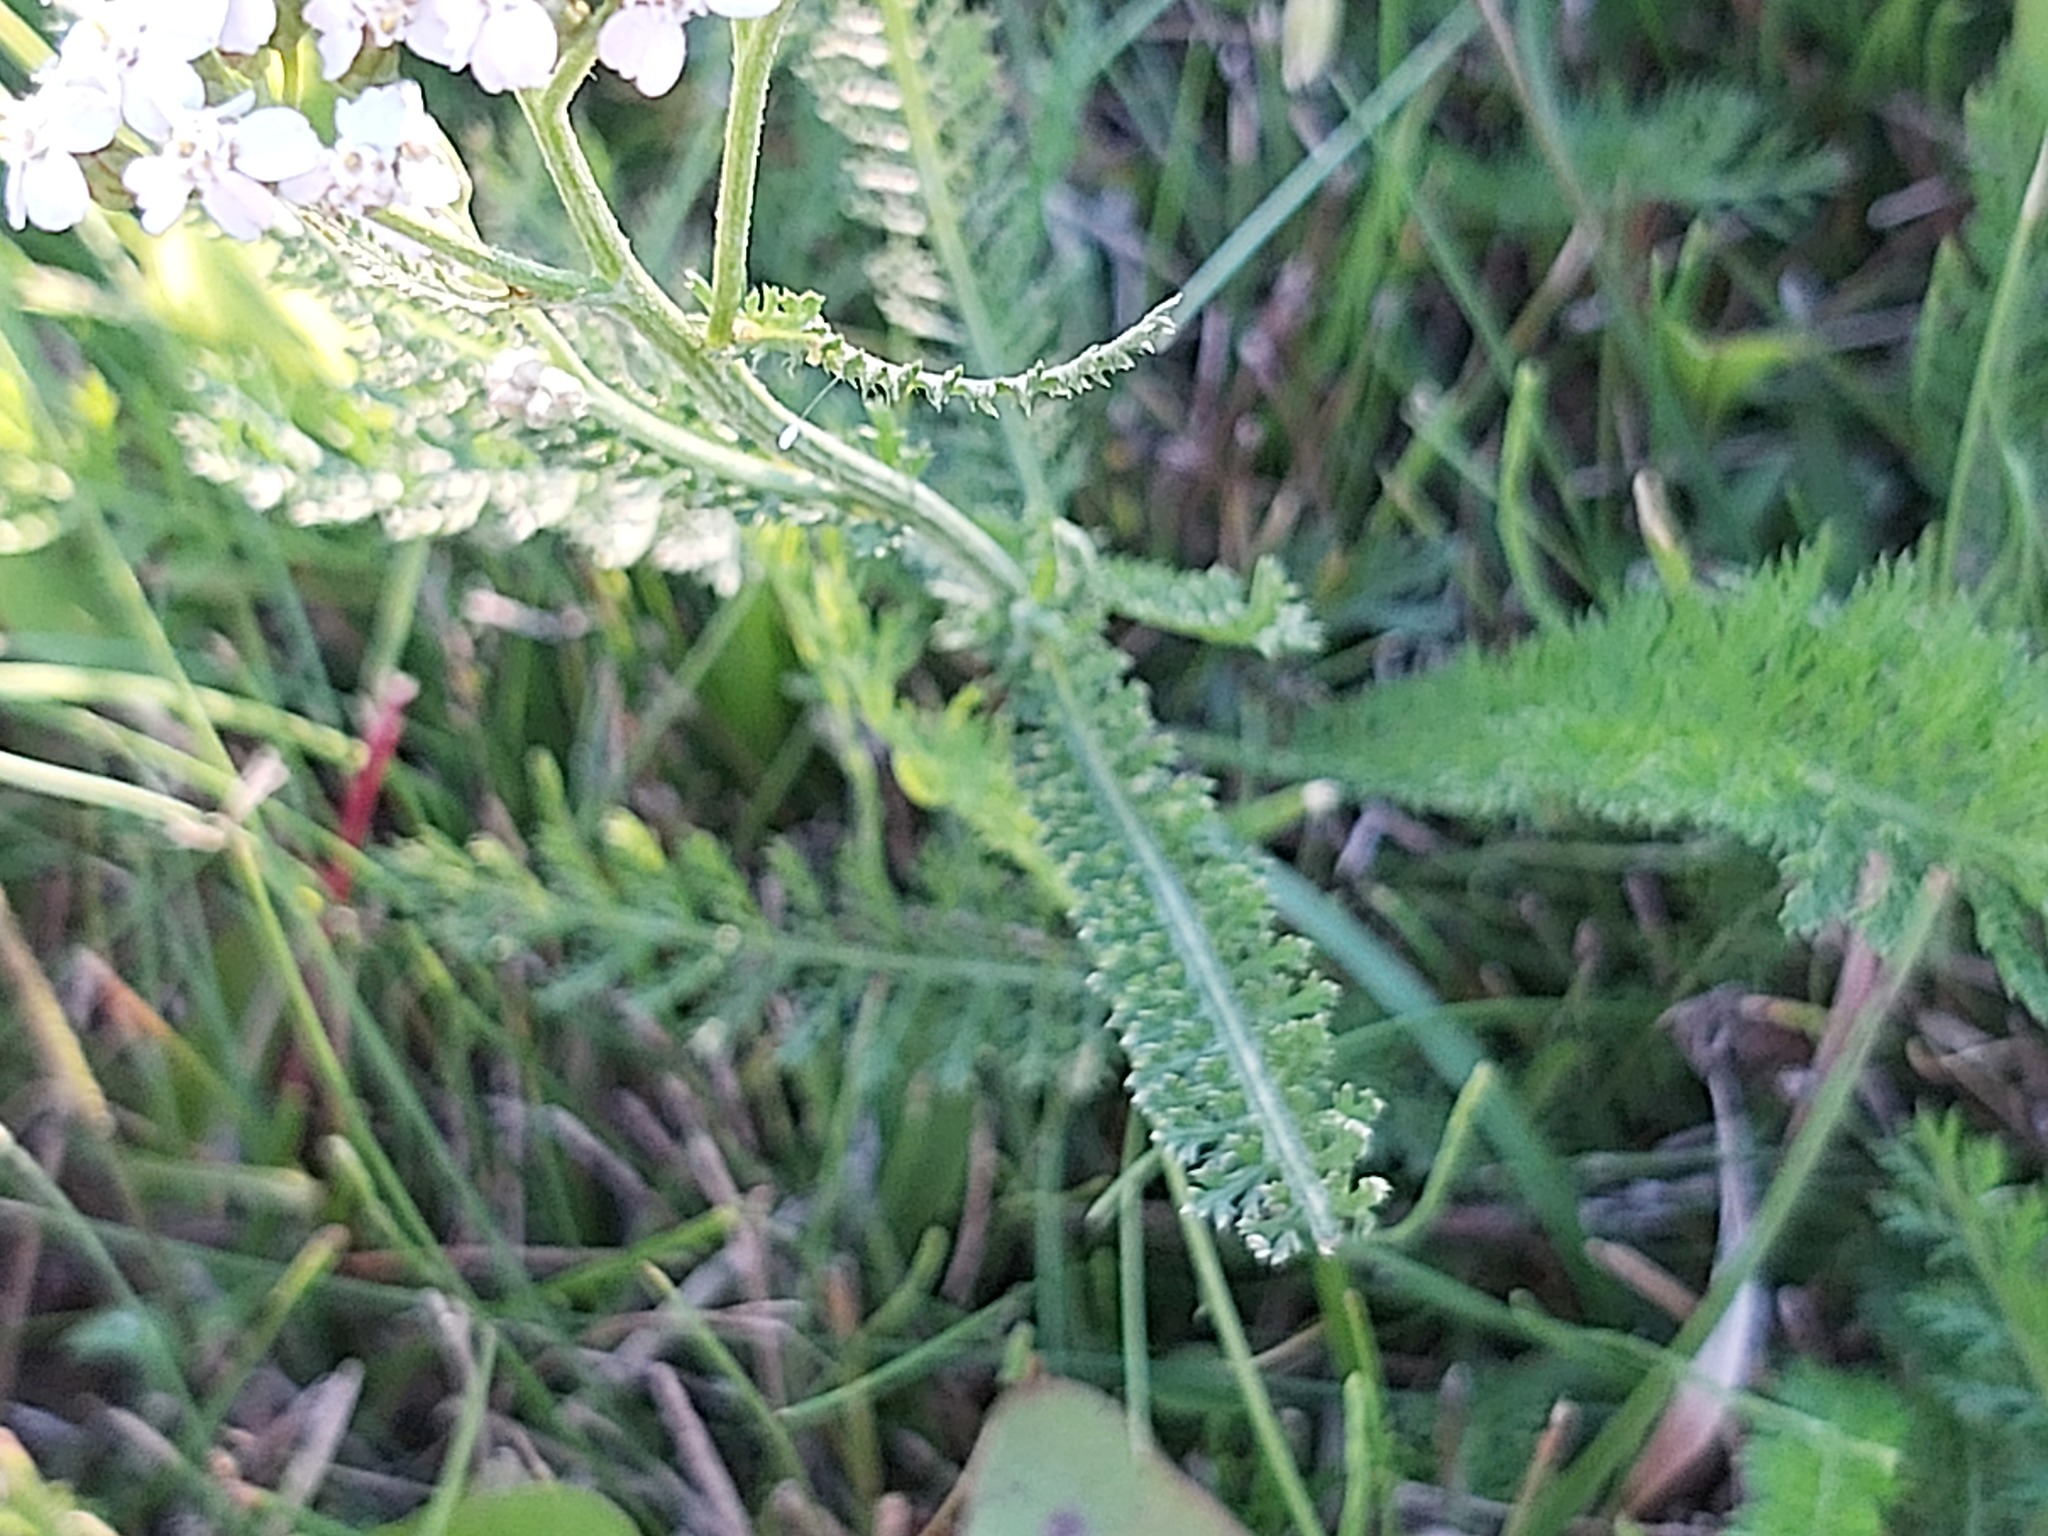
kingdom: Plantae
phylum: Tracheophyta
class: Magnoliopsida
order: Asterales
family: Asteraceae
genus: Achillea
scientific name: Achillea millefolium
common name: Yarrow
